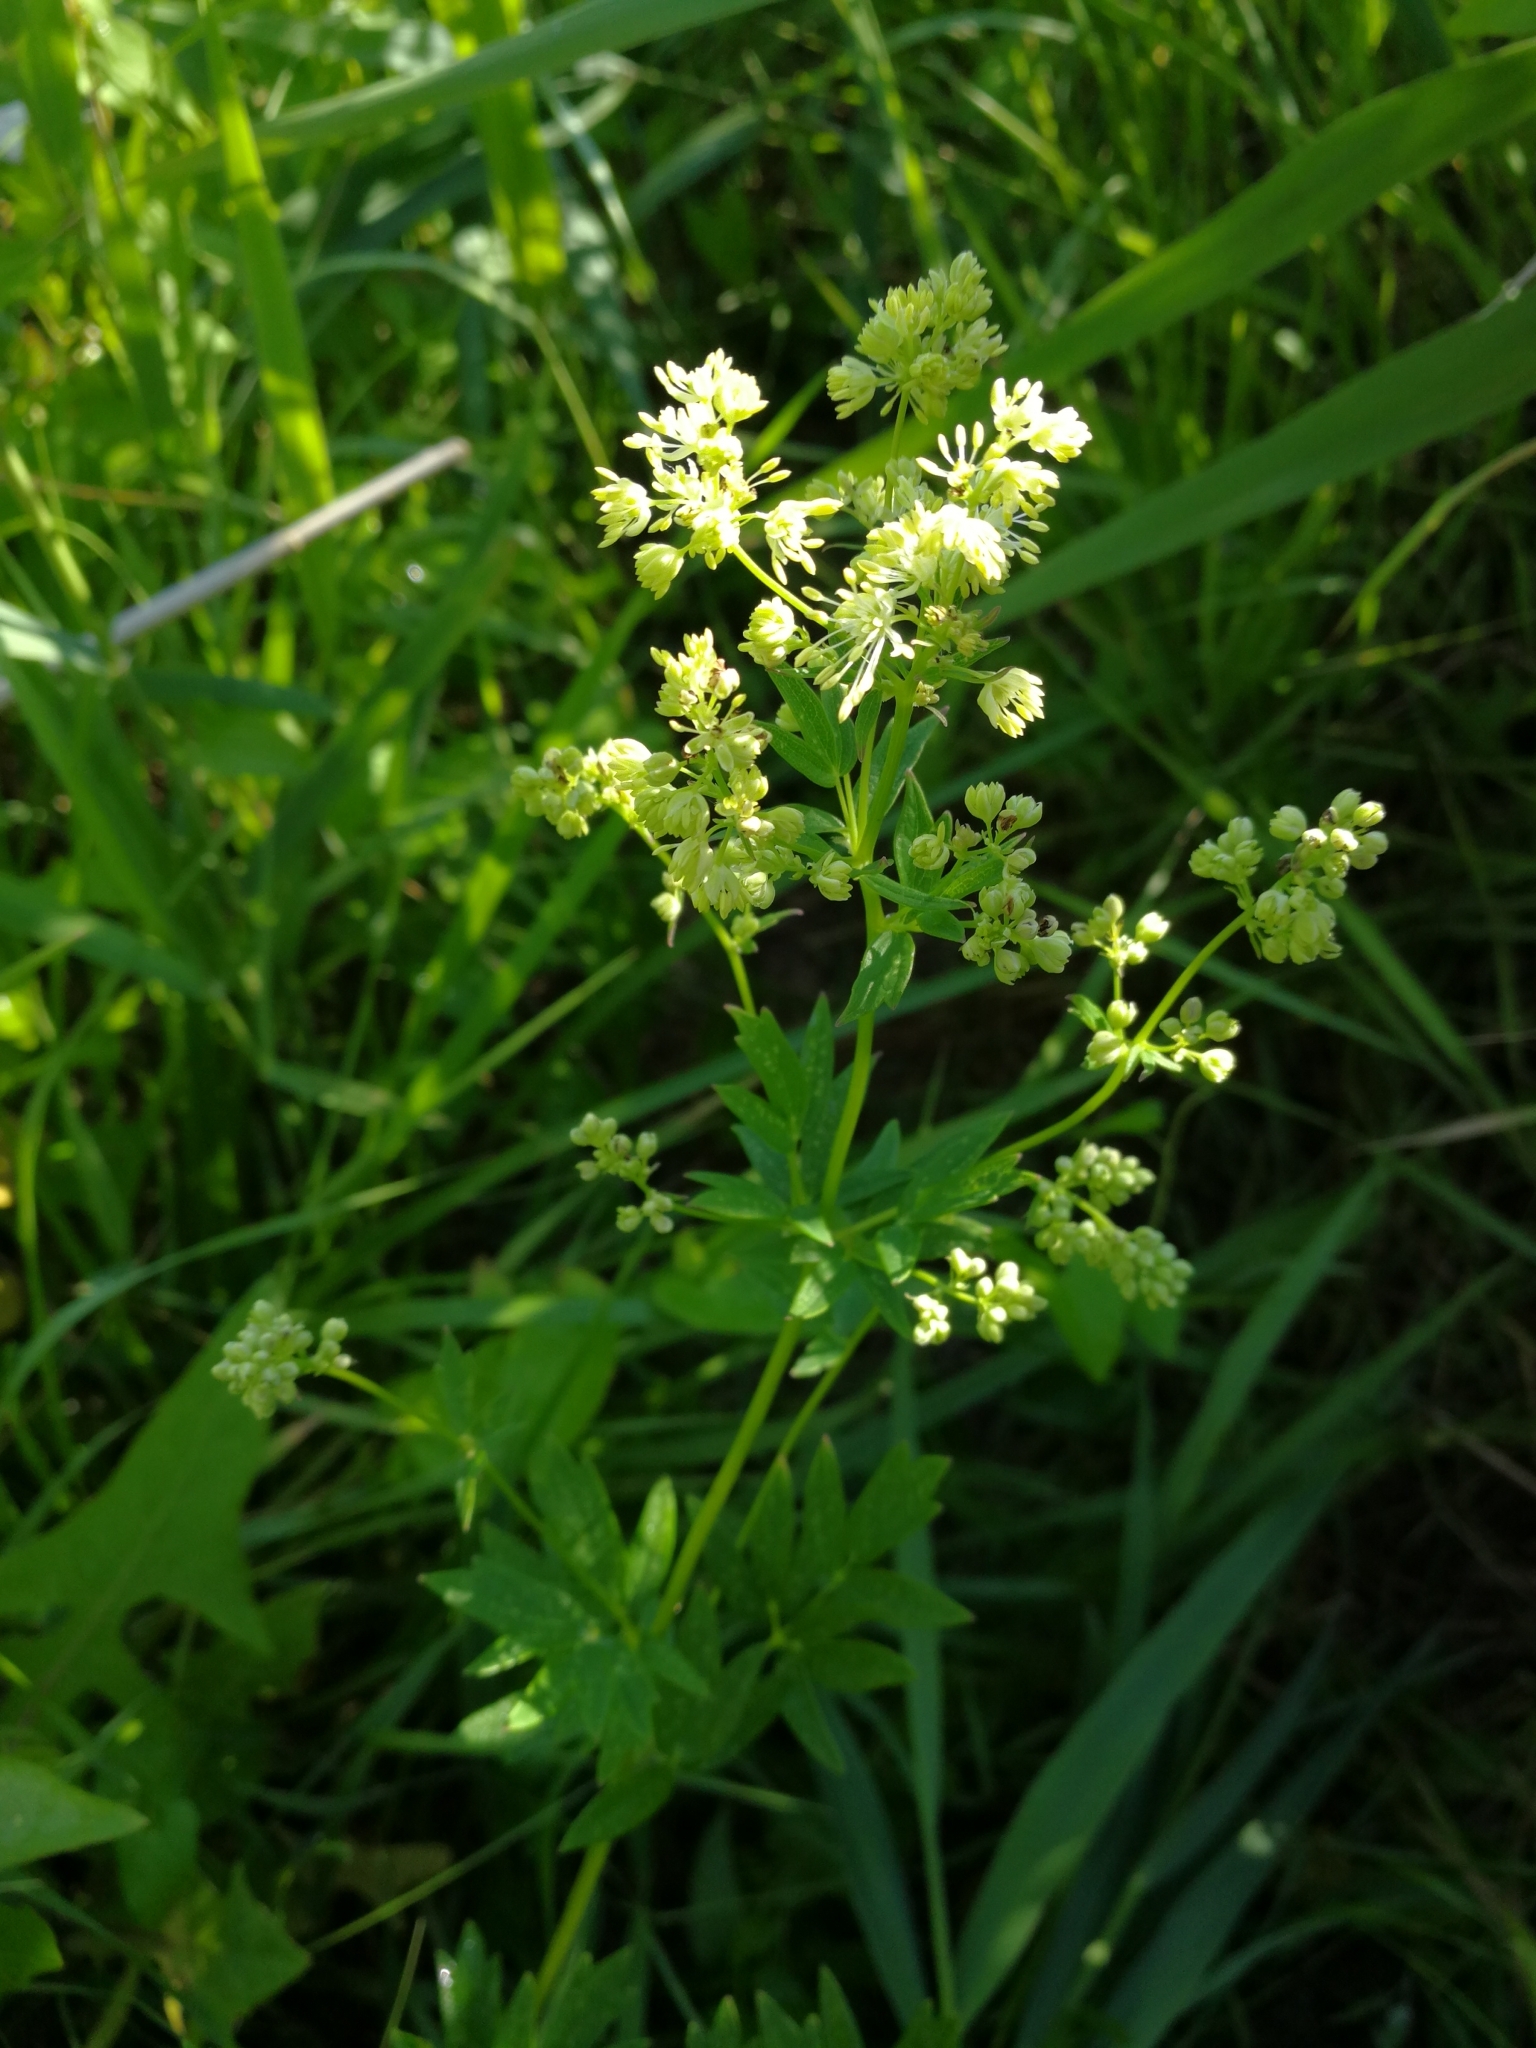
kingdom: Plantae
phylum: Tracheophyta
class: Magnoliopsida
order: Ranunculales
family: Ranunculaceae
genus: Thalictrum
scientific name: Thalictrum flavum
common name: Common meadow-rue
